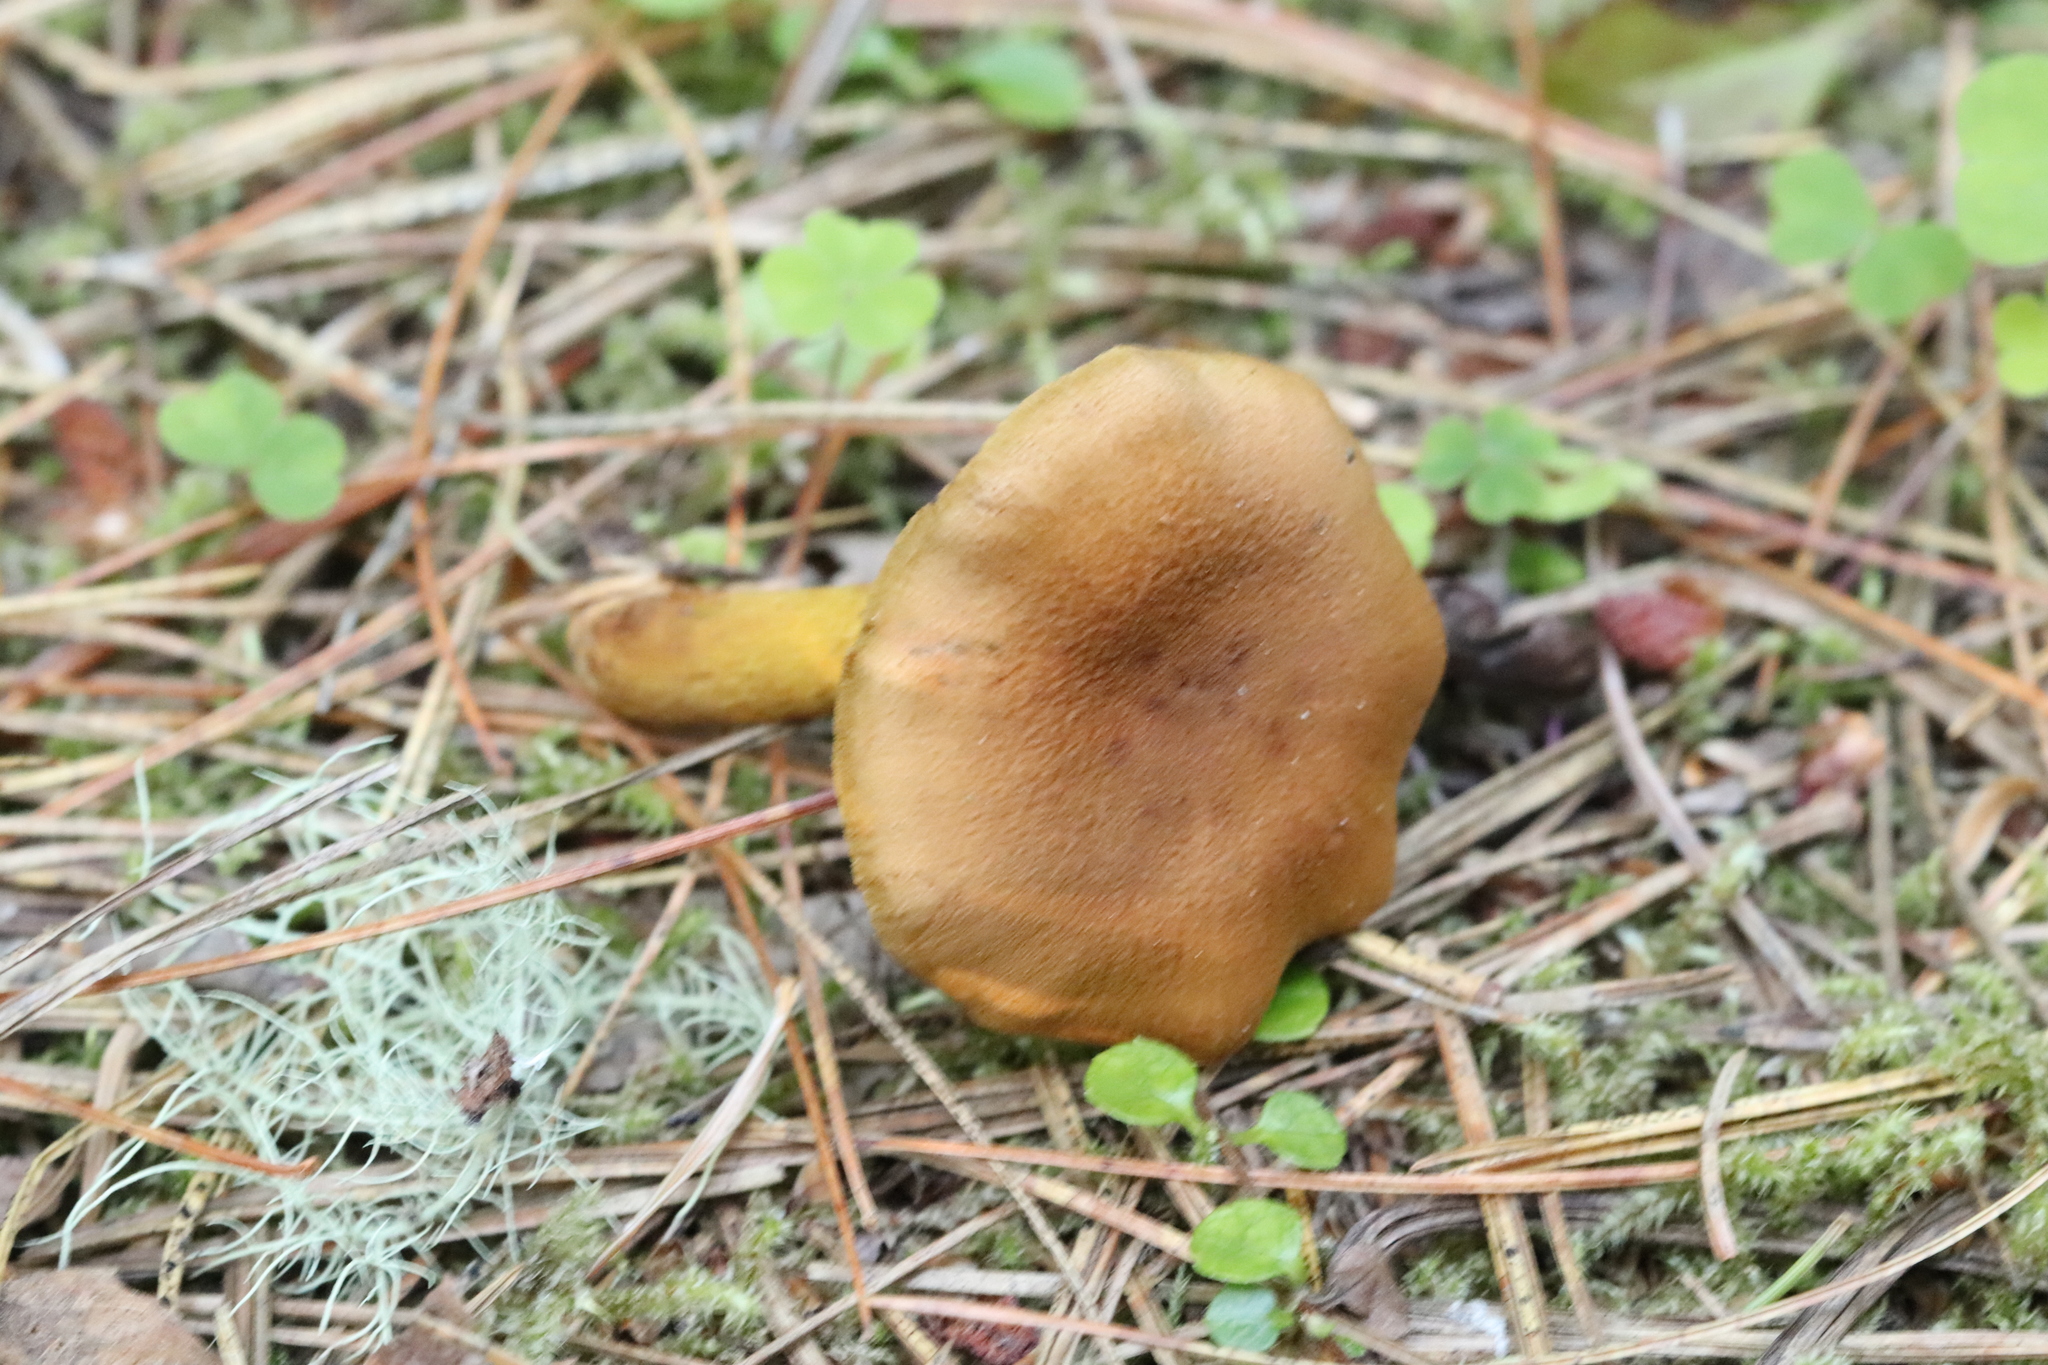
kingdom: Fungi
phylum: Basidiomycota
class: Agaricomycetes
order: Agaricales
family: Cortinariaceae
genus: Cortinarius
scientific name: Cortinarius cinnamomeus
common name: Cinnamon webcap
